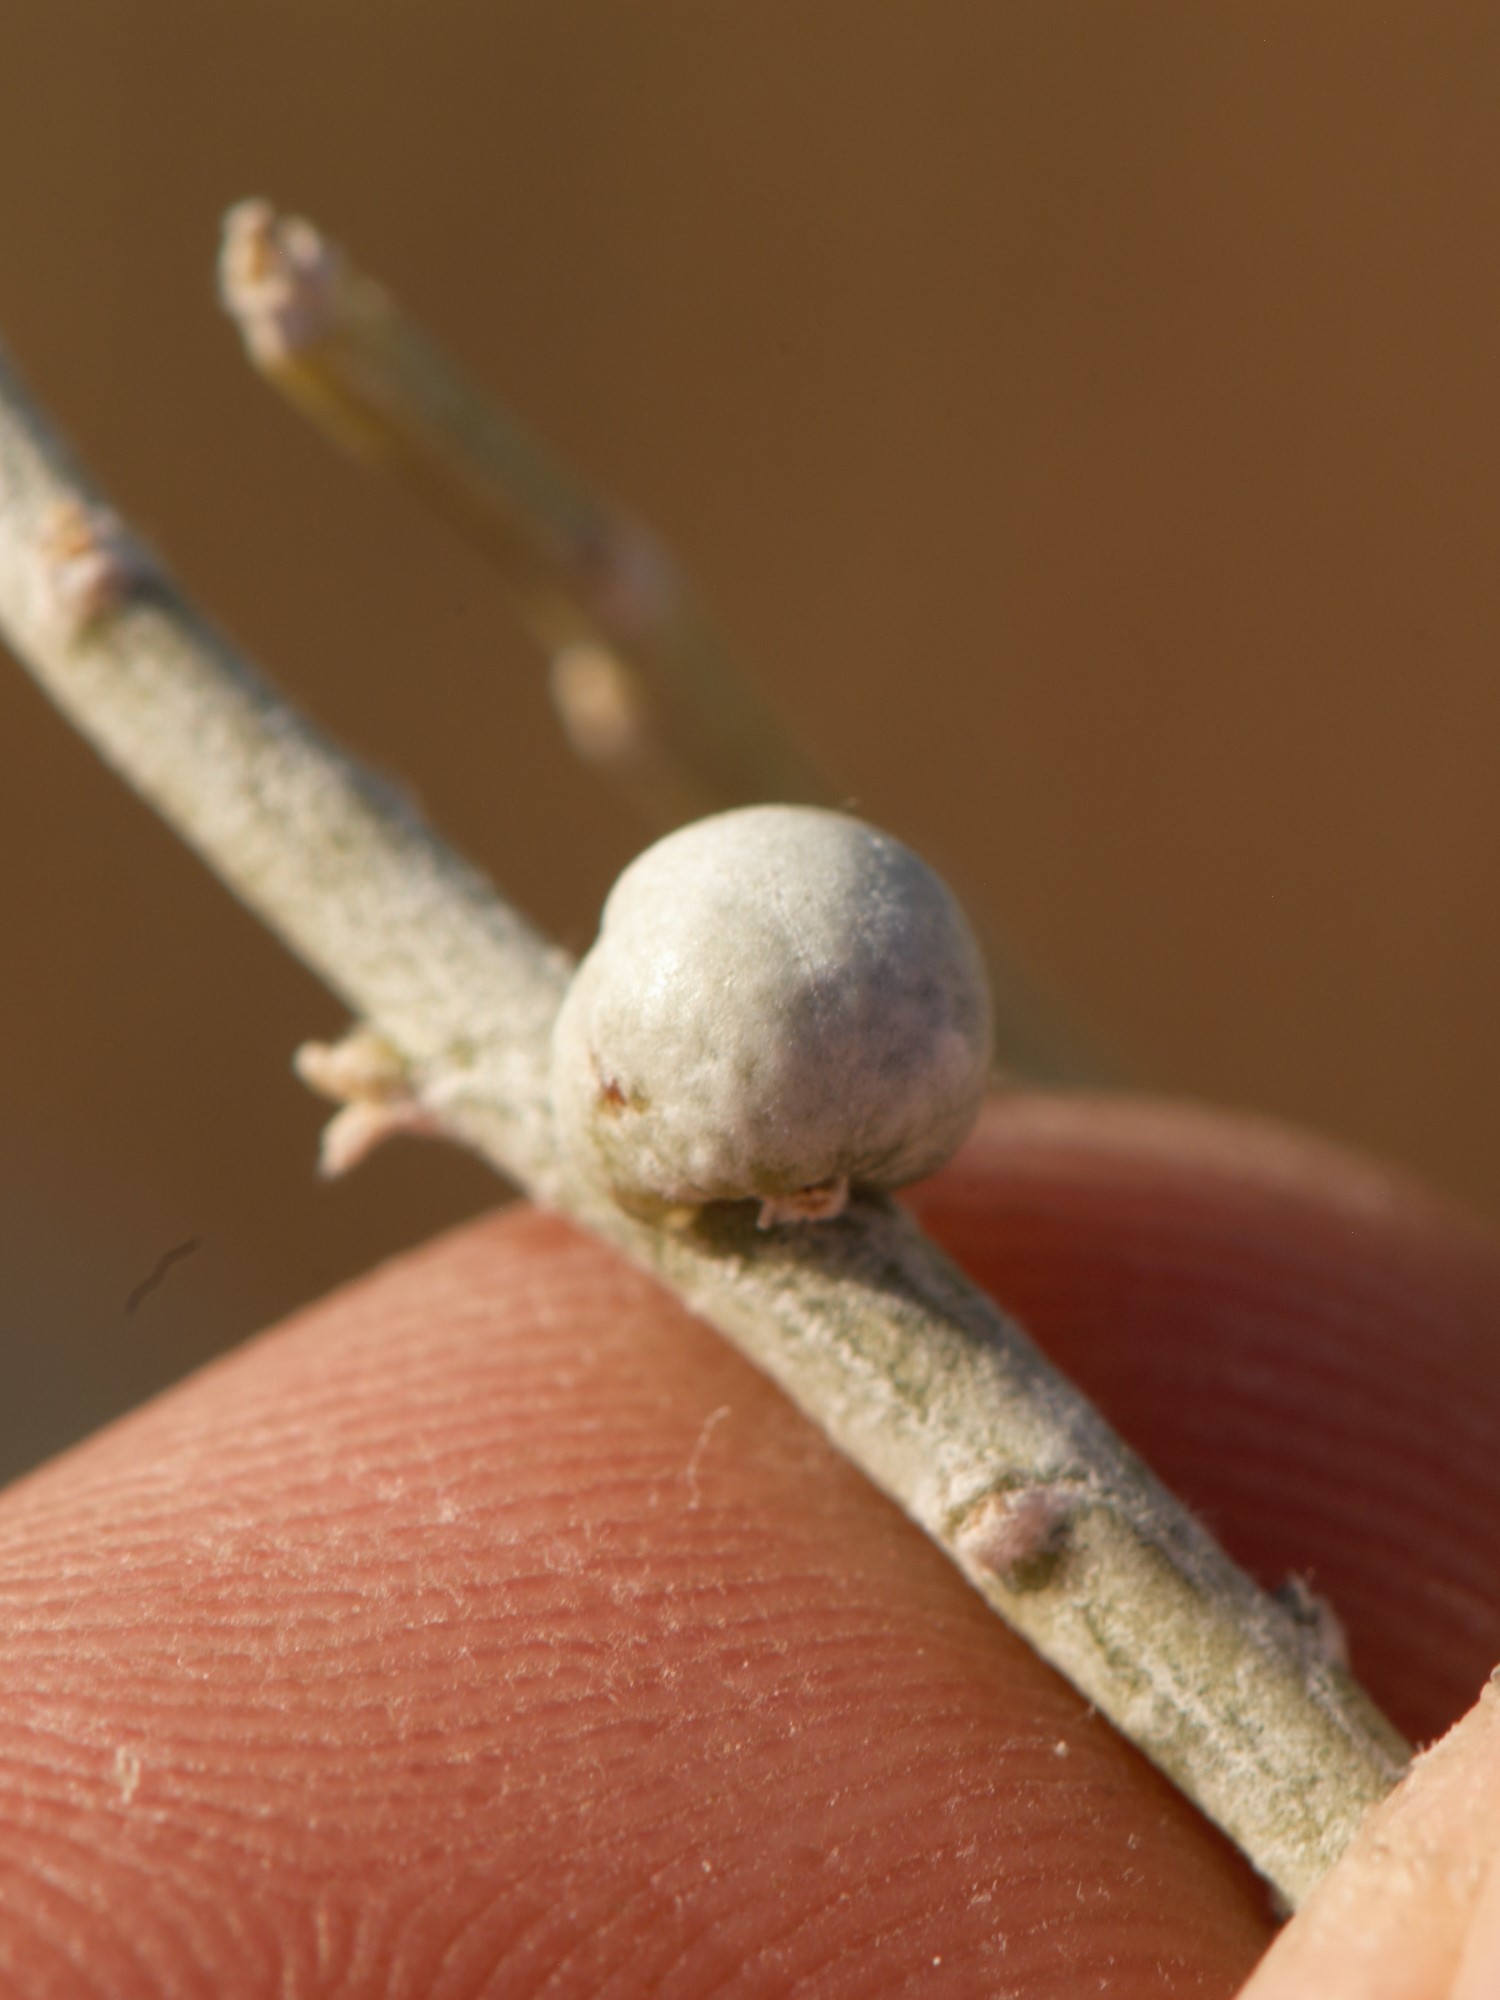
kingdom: Animalia
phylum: Arthropoda
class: Insecta
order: Diptera
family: Tephritidae
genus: Aciurina
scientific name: Aciurina trixa
